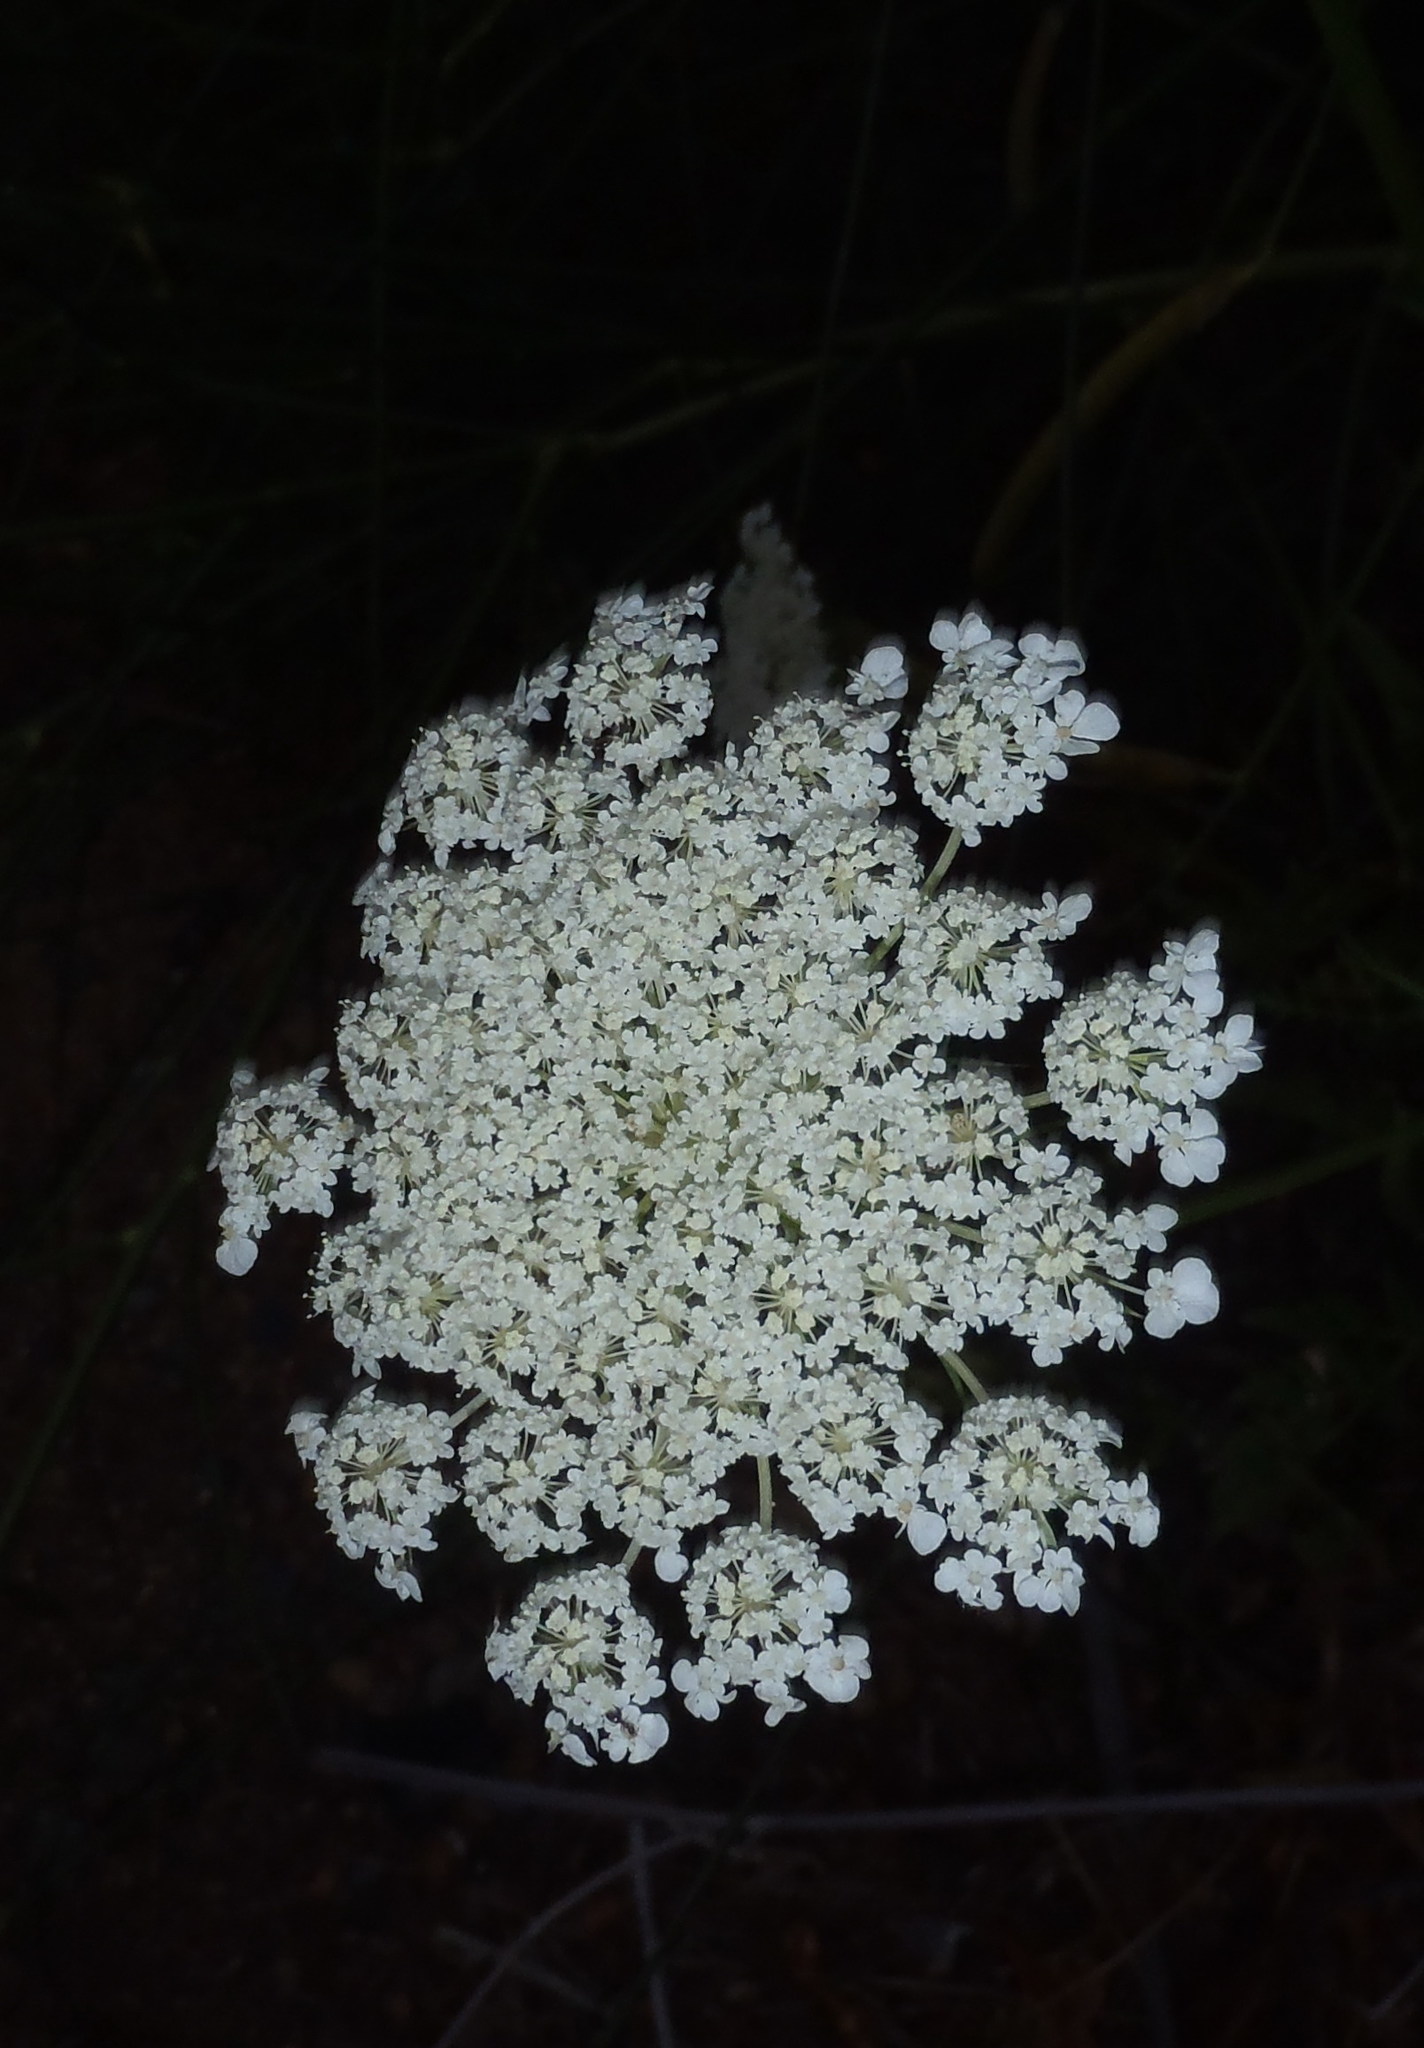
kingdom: Plantae
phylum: Tracheophyta
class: Magnoliopsida
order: Apiales
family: Apiaceae
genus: Daucus
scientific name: Daucus carota
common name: Wild carrot
